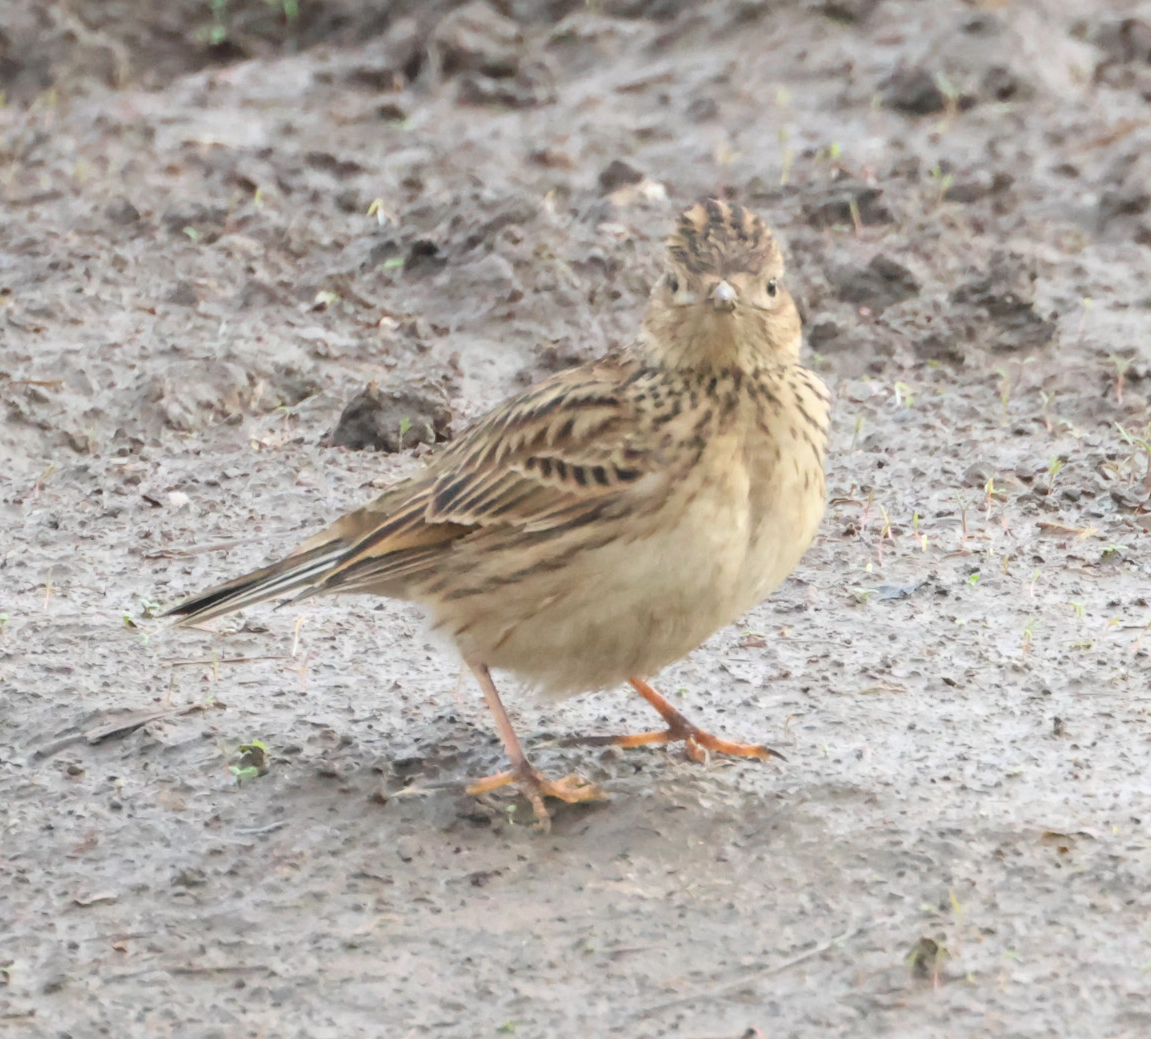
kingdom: Animalia
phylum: Chordata
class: Aves
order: Passeriformes
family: Alaudidae
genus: Alauda
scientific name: Alauda arvensis
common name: Eurasian skylark
